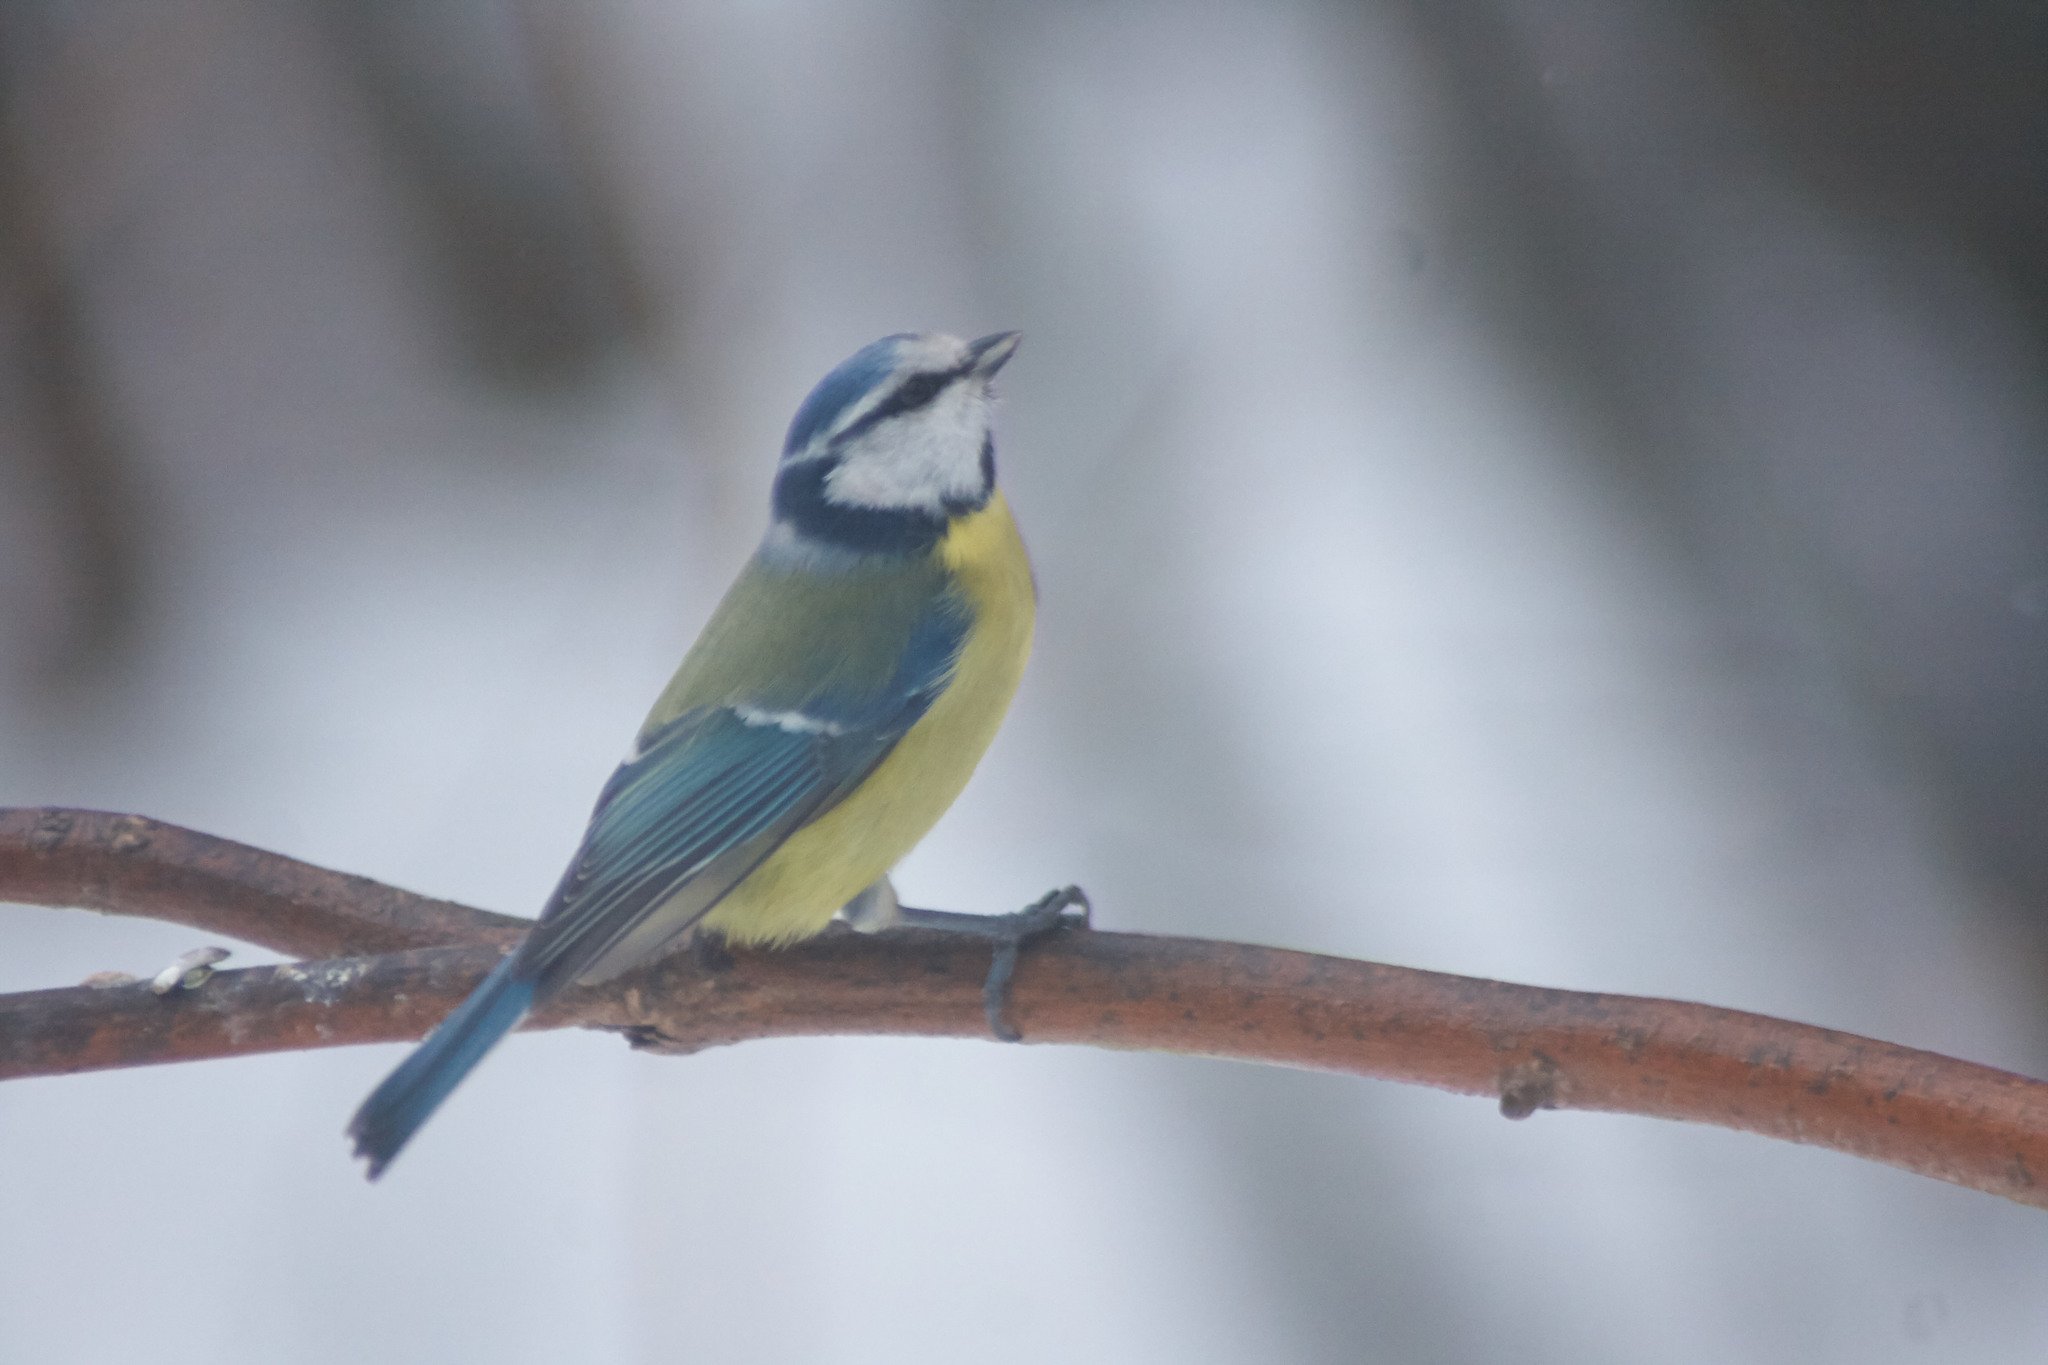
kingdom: Animalia
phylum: Chordata
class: Aves
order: Passeriformes
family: Paridae
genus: Cyanistes
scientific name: Cyanistes caeruleus
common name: Eurasian blue tit
